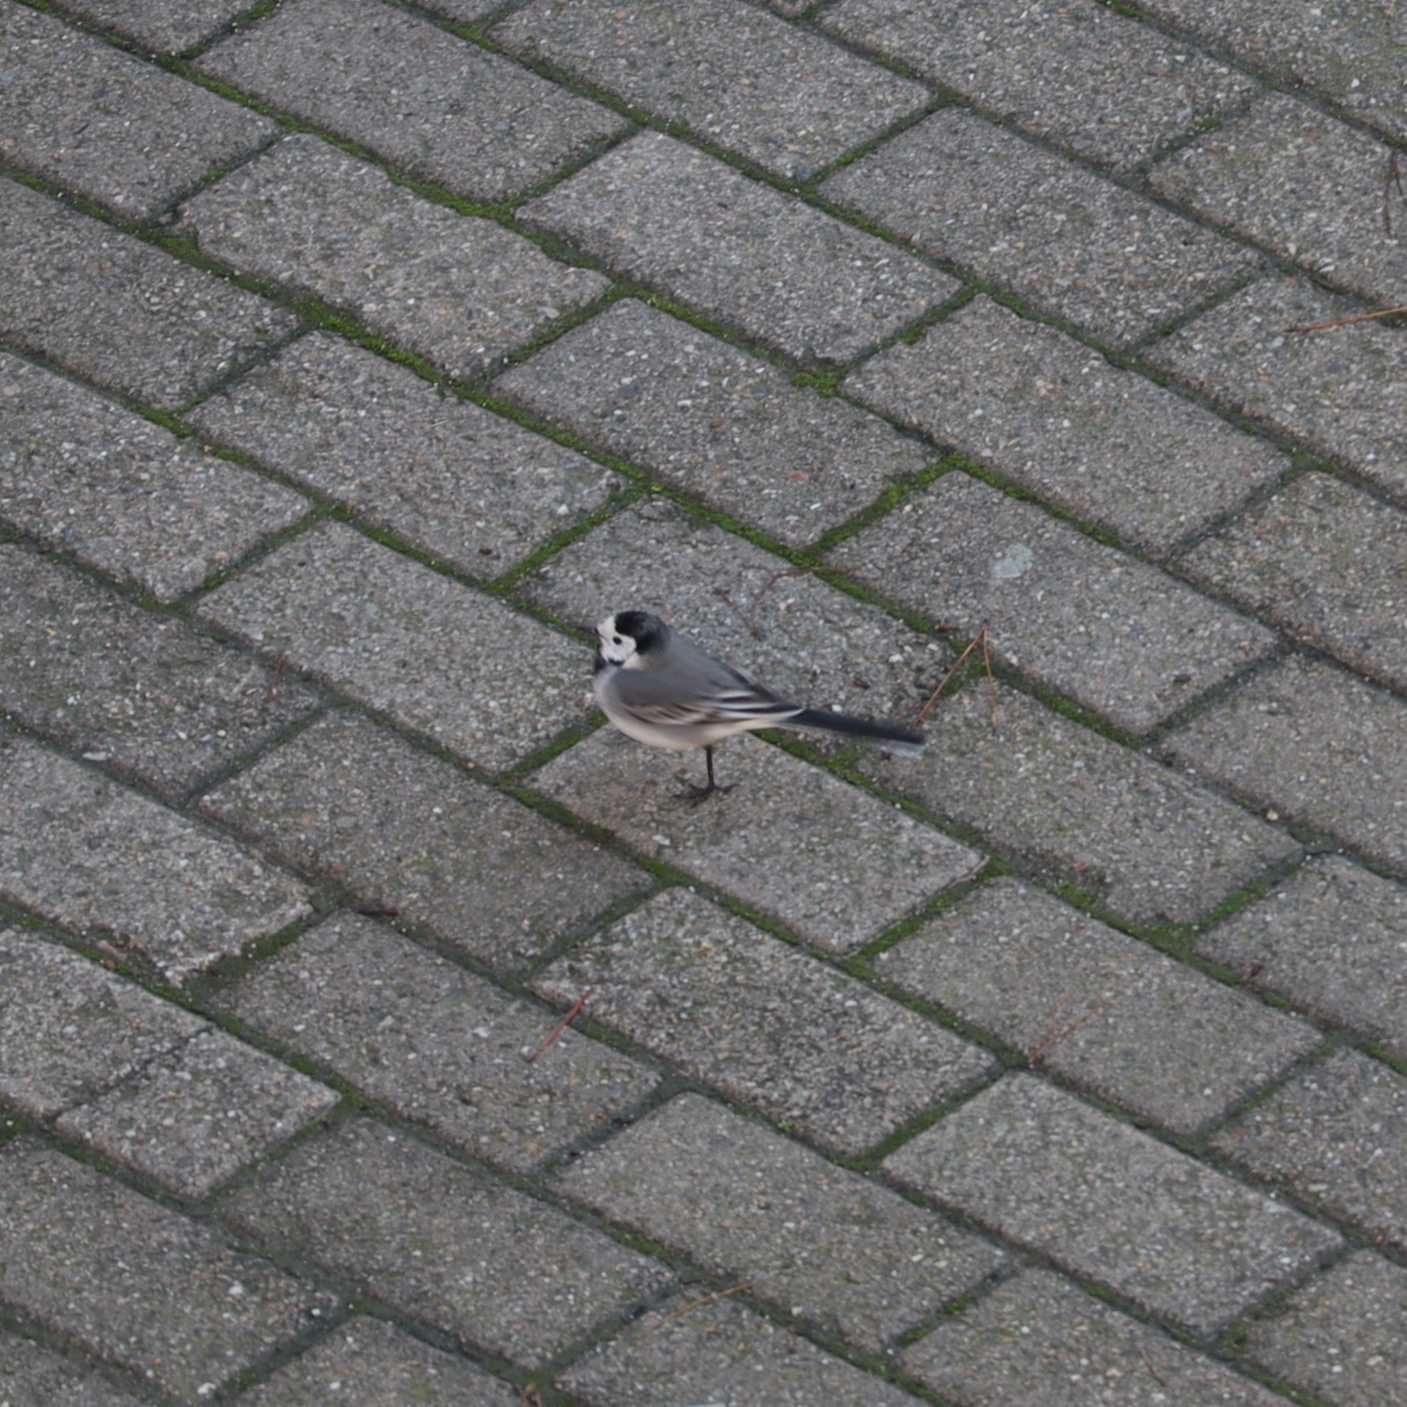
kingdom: Animalia
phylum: Chordata
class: Aves
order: Passeriformes
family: Motacillidae
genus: Motacilla
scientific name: Motacilla alba
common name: White wagtail
